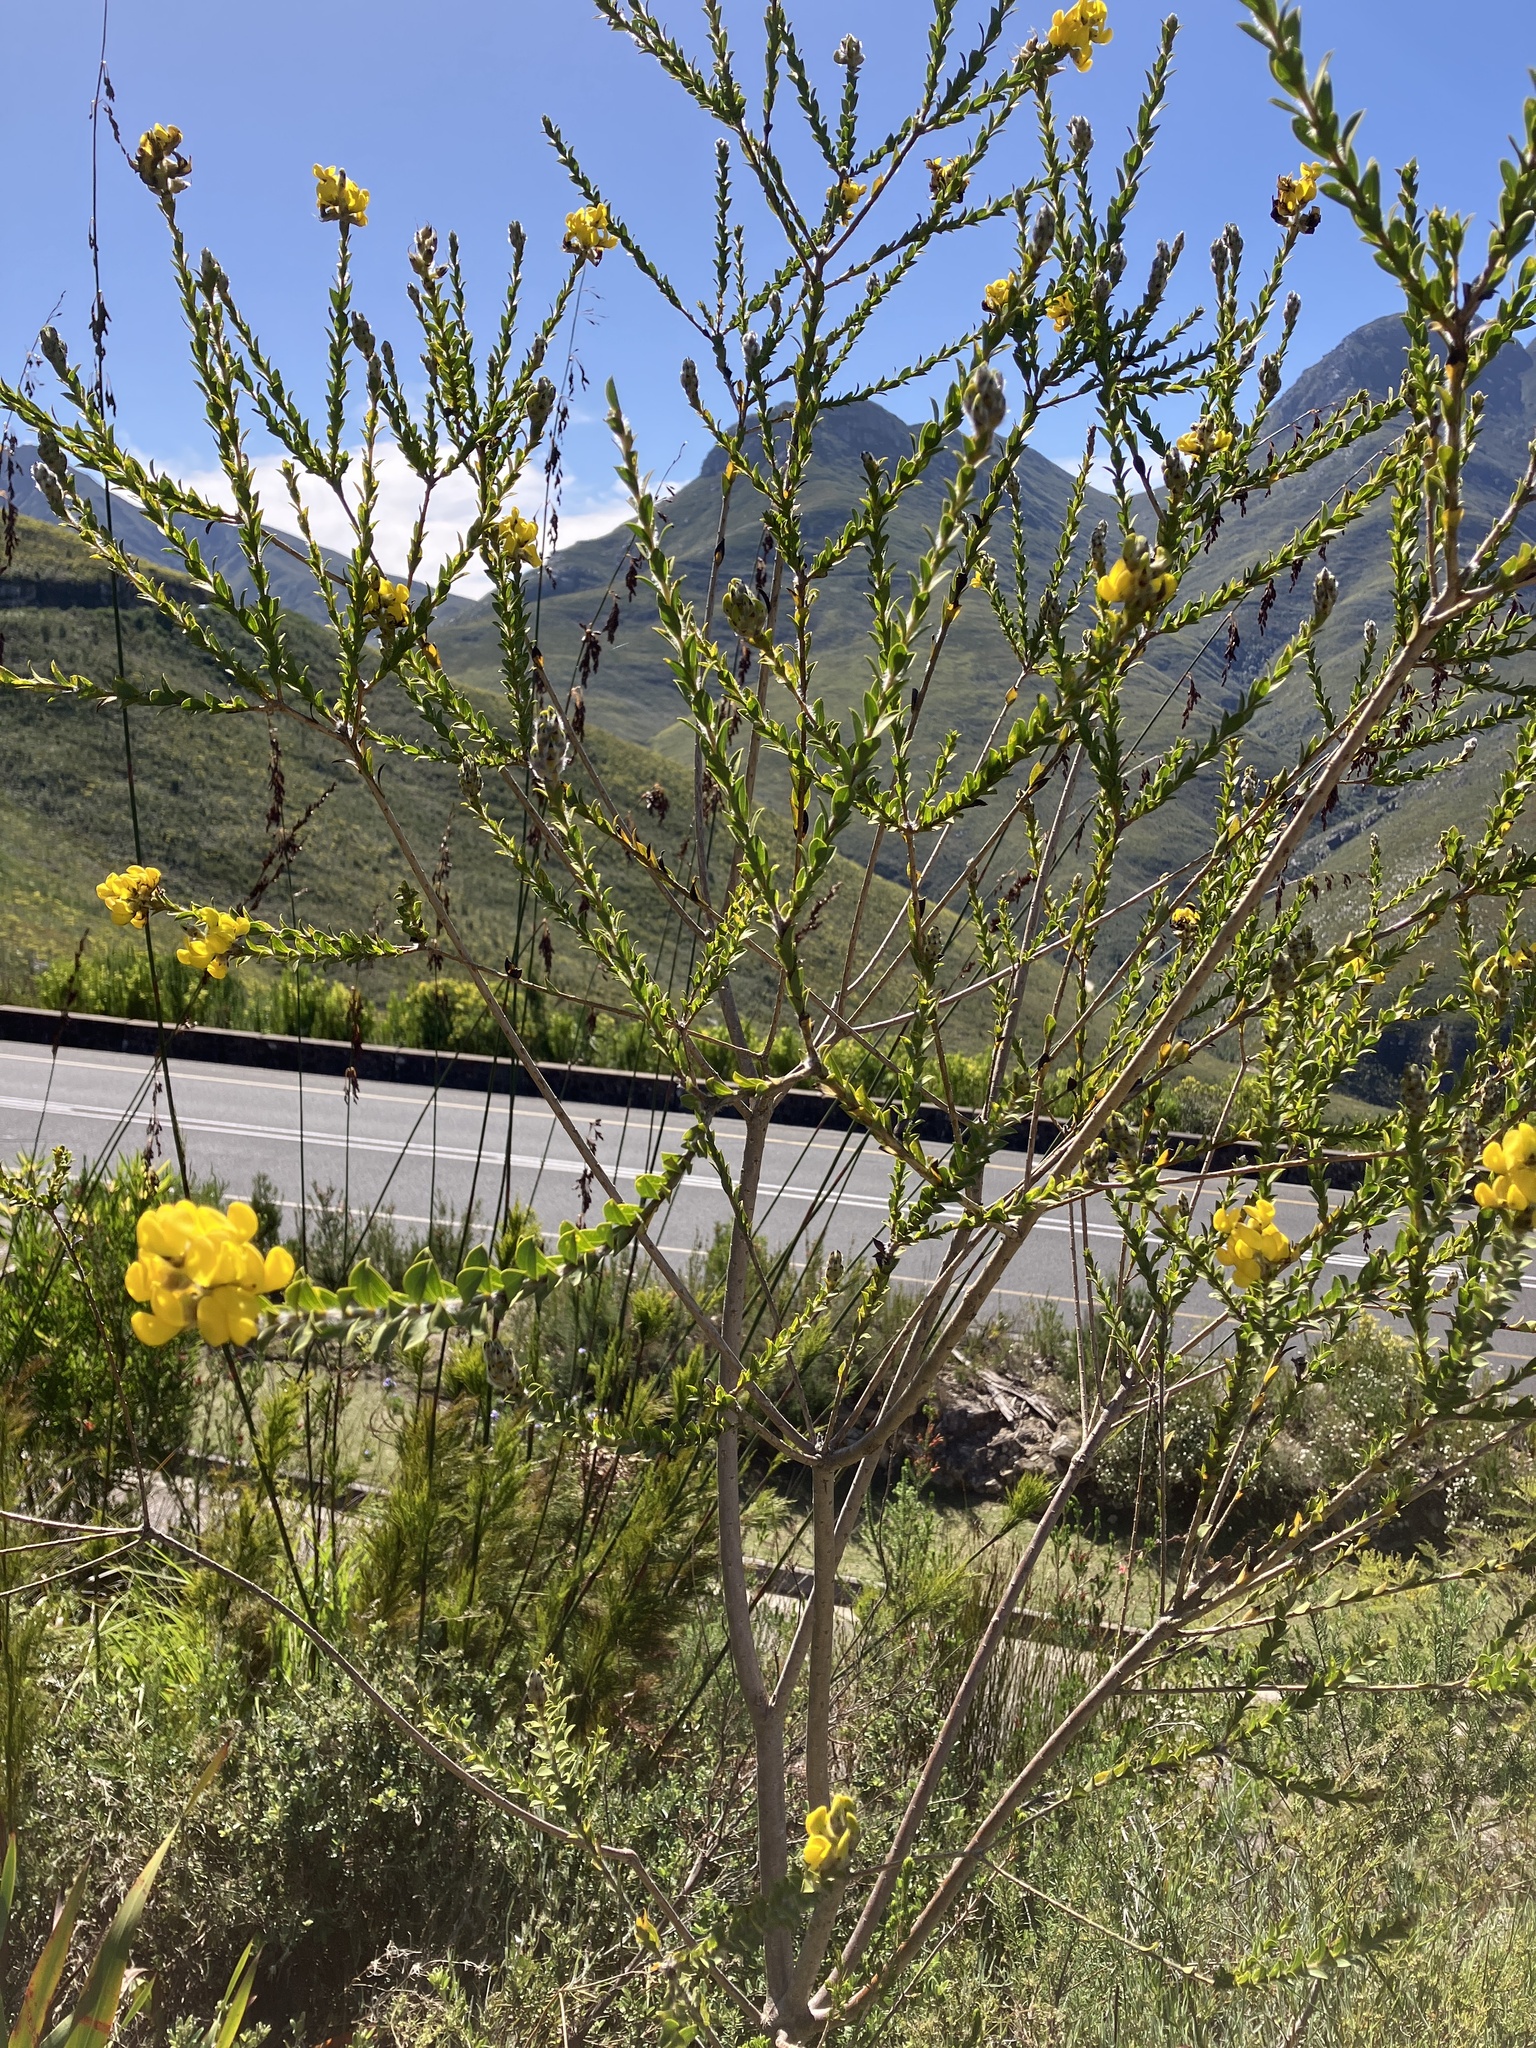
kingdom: Plantae
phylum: Tracheophyta
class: Magnoliopsida
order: Fabales
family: Fabaceae
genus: Liparia
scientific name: Liparia hirsuta
